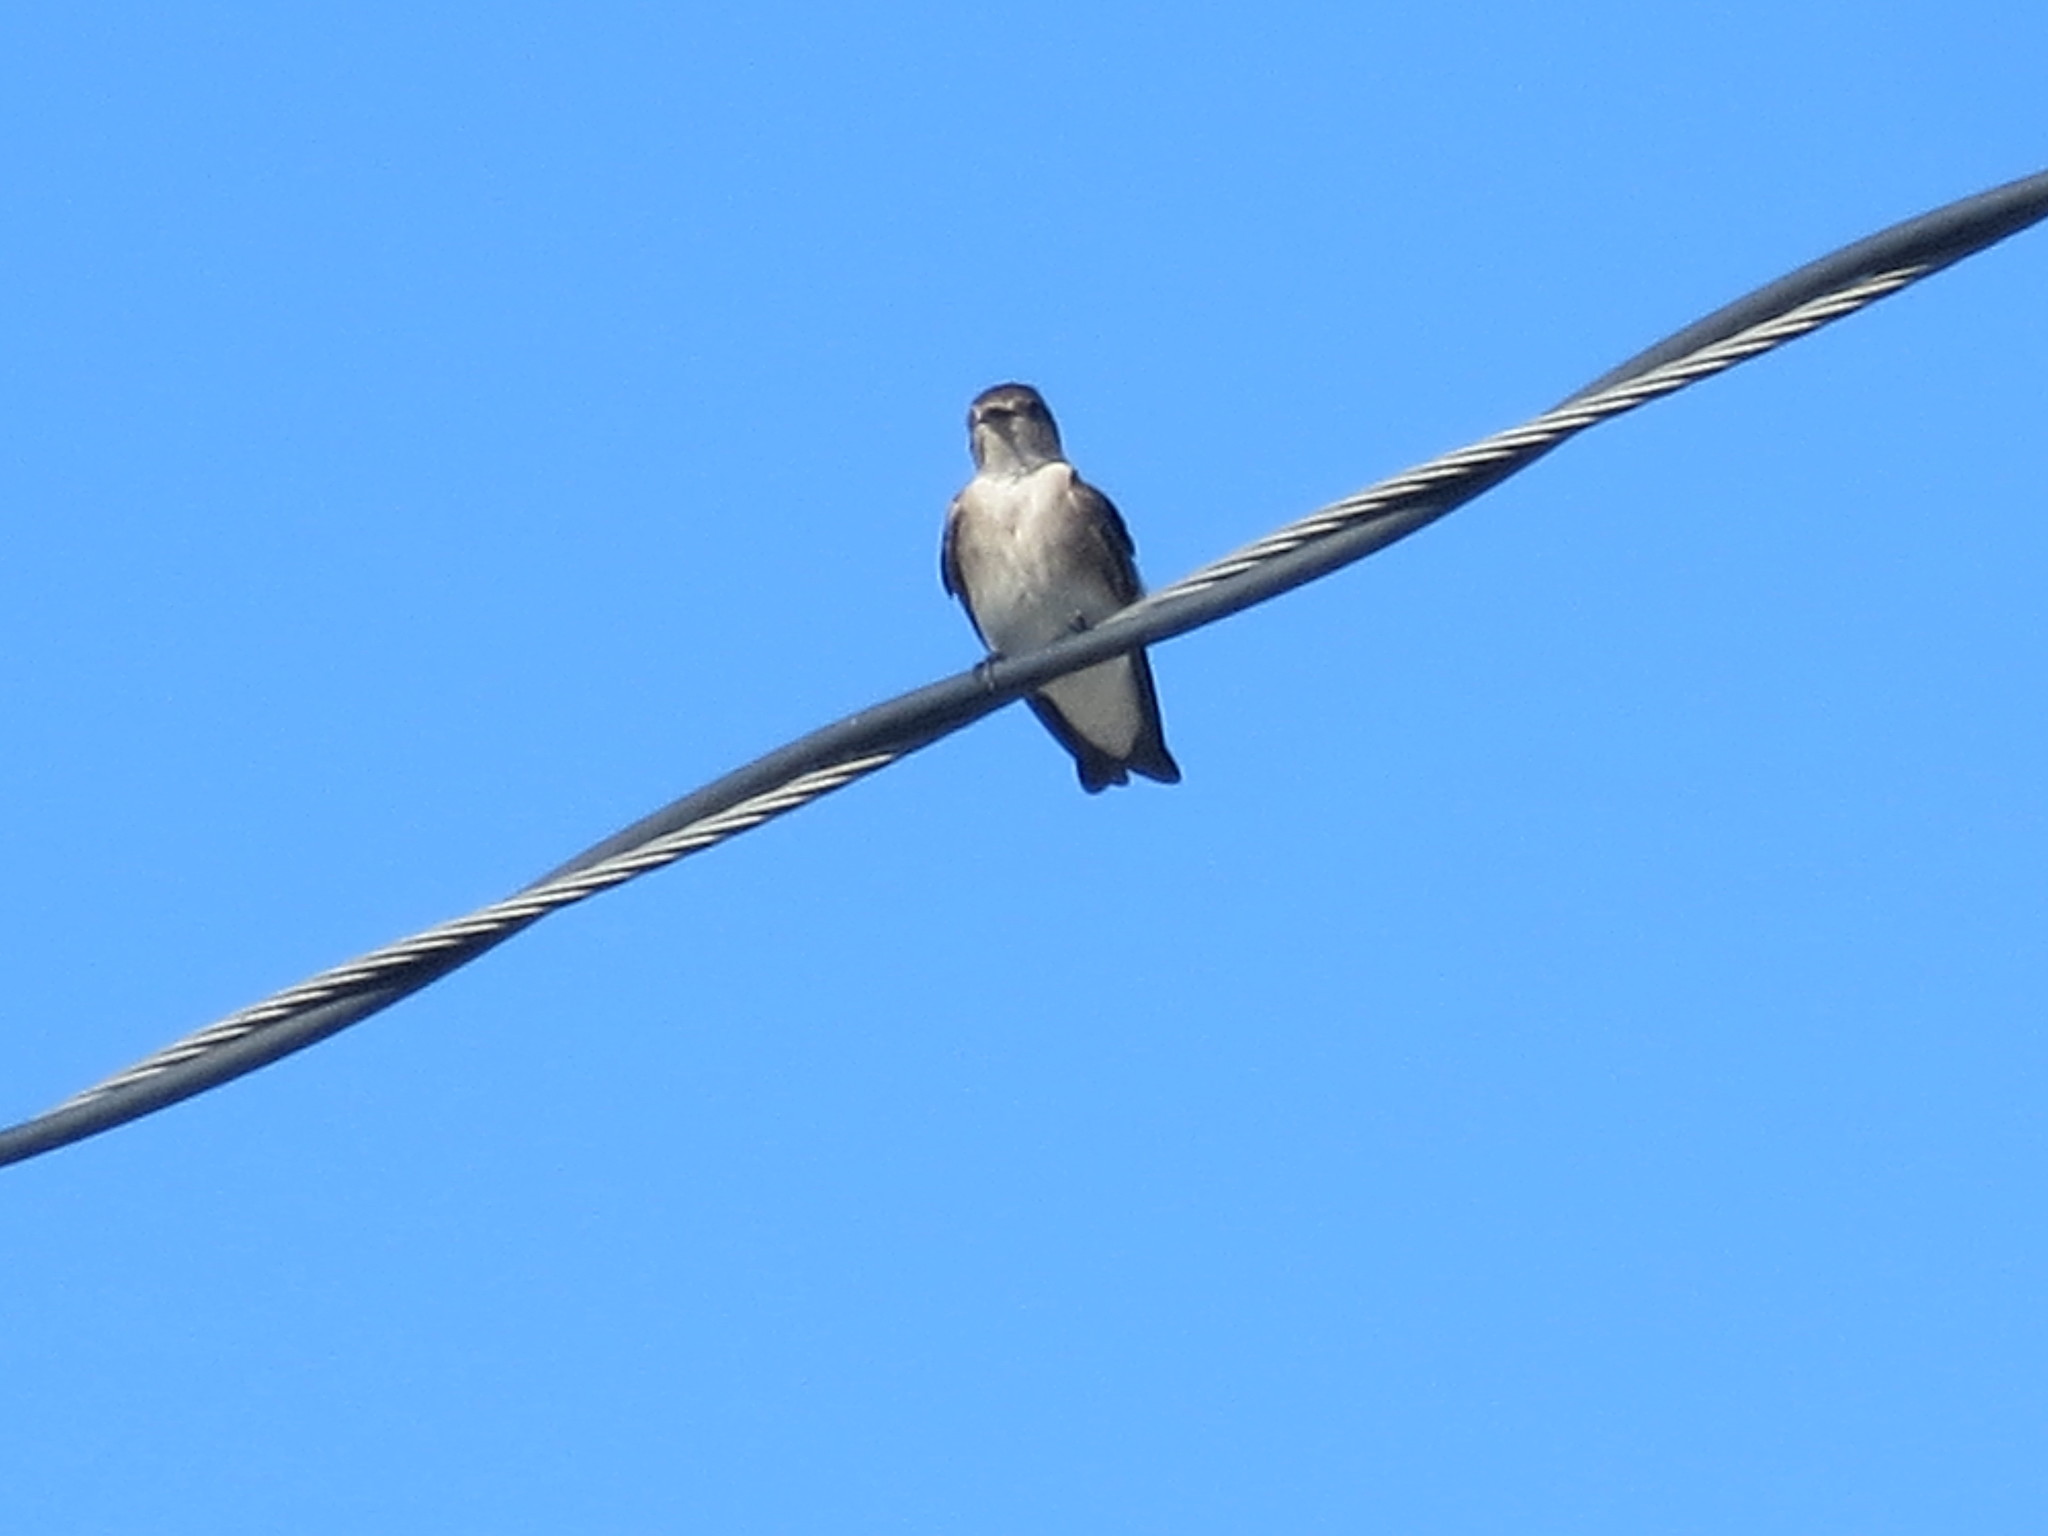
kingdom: Animalia
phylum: Chordata
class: Aves
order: Passeriformes
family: Hirundinidae
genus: Stelgidopteryx
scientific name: Stelgidopteryx serripennis
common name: Northern rough-winged swallow
